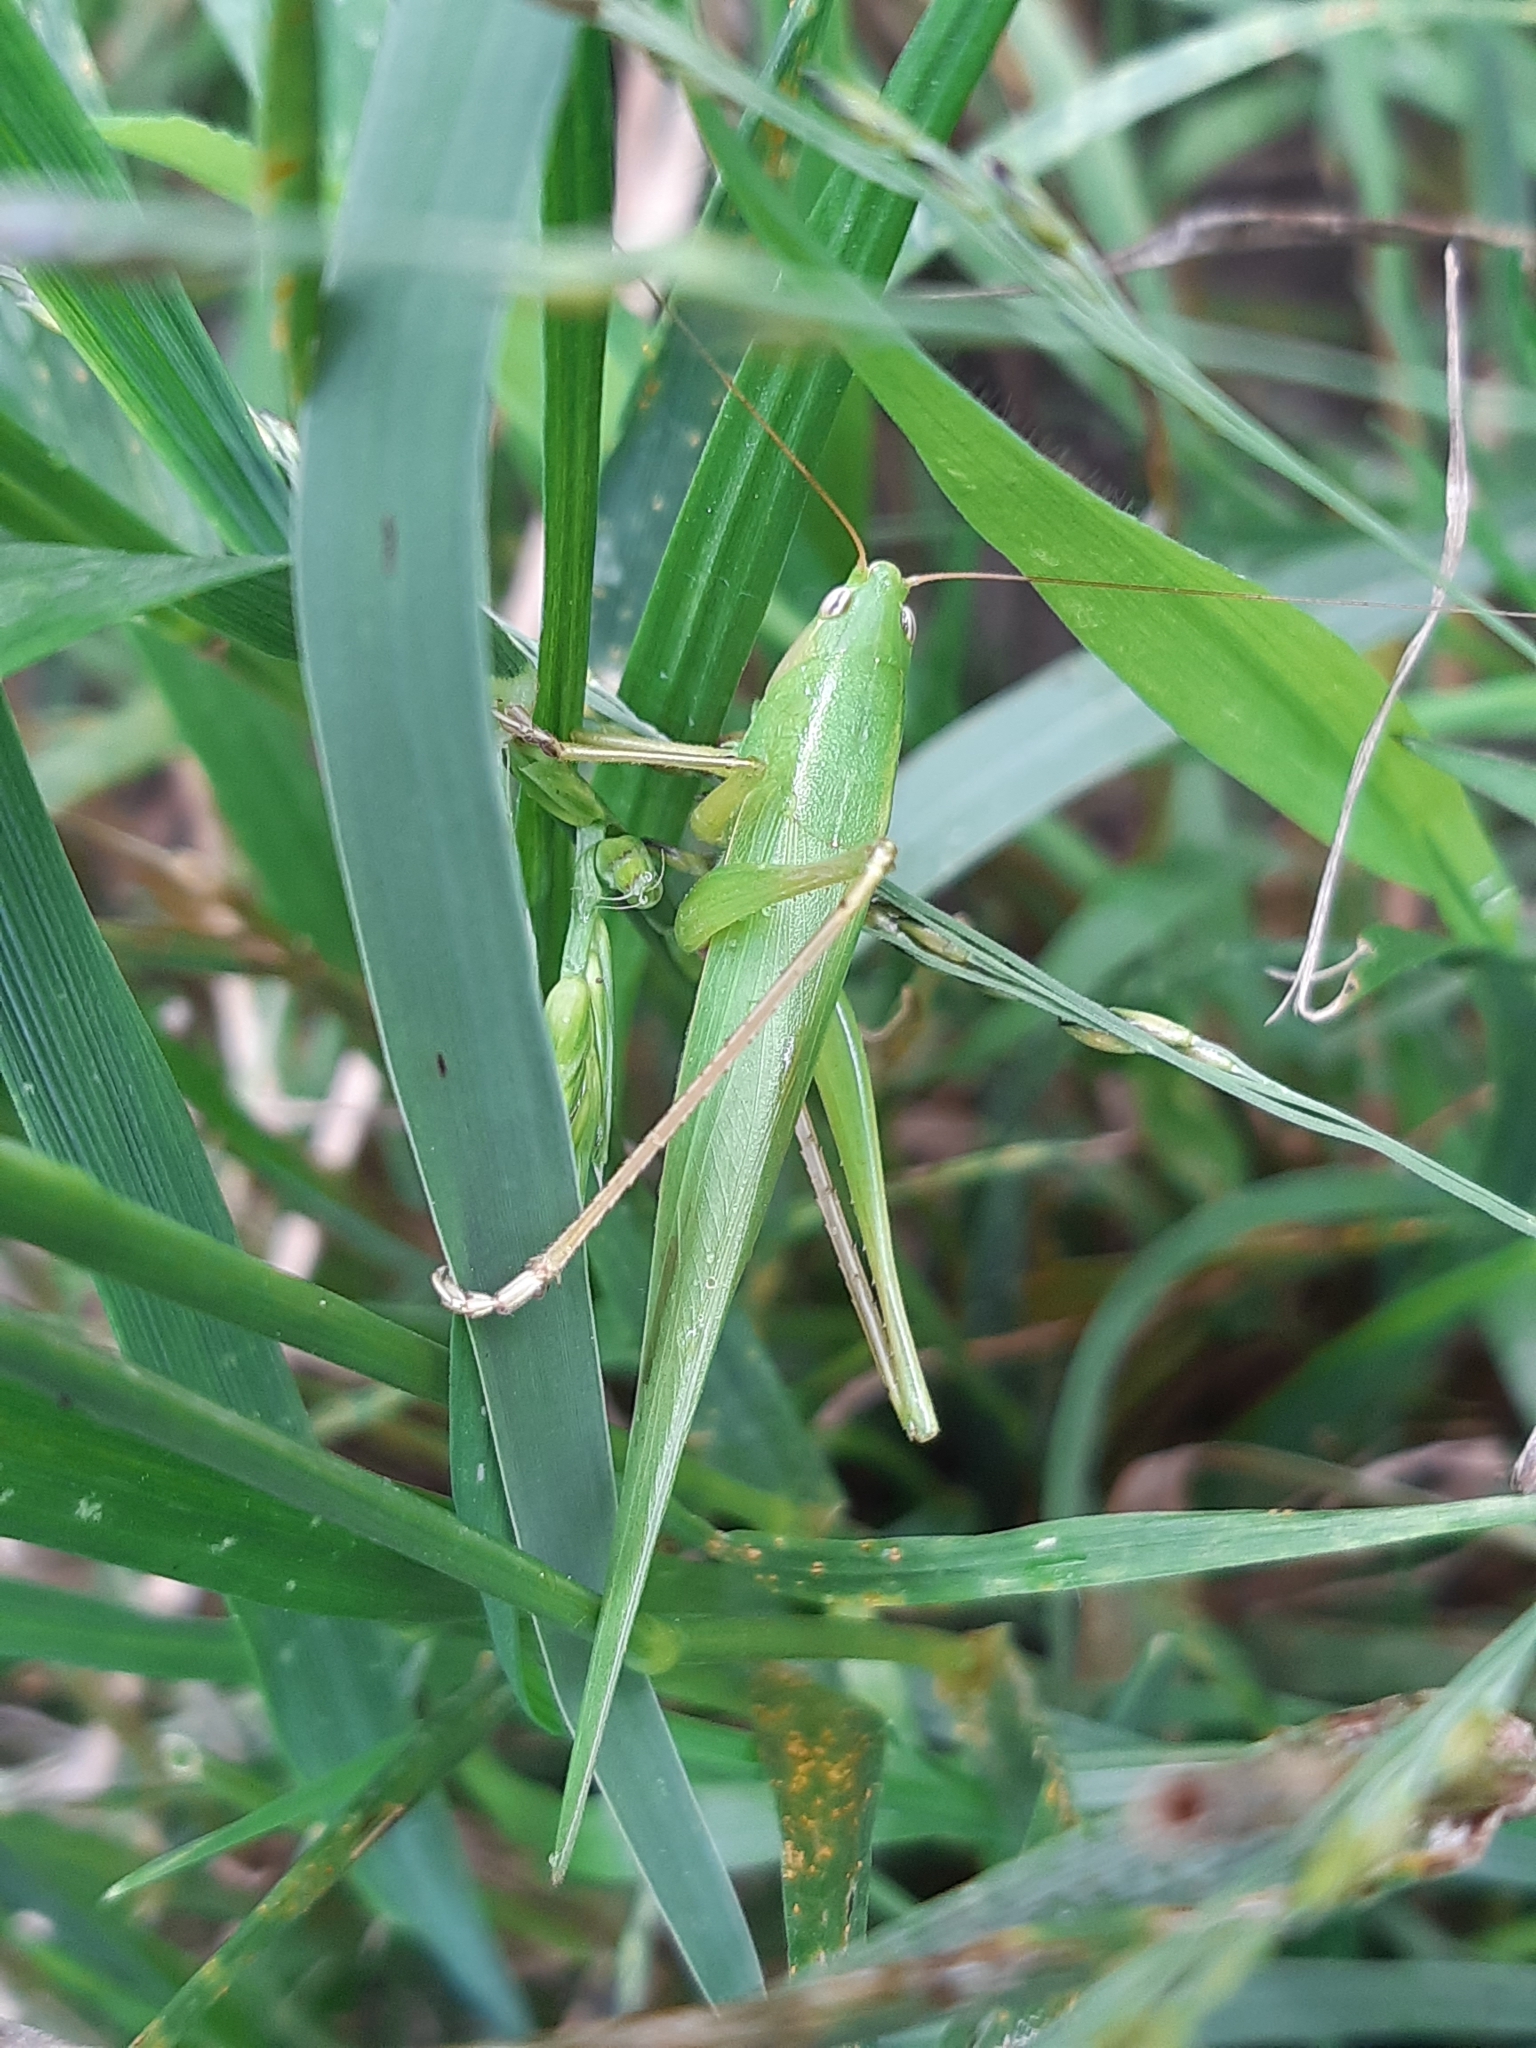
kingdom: Animalia
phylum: Arthropoda
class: Insecta
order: Orthoptera
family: Tettigoniidae
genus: Ruspolia
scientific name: Ruspolia nitidula
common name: Large conehead
